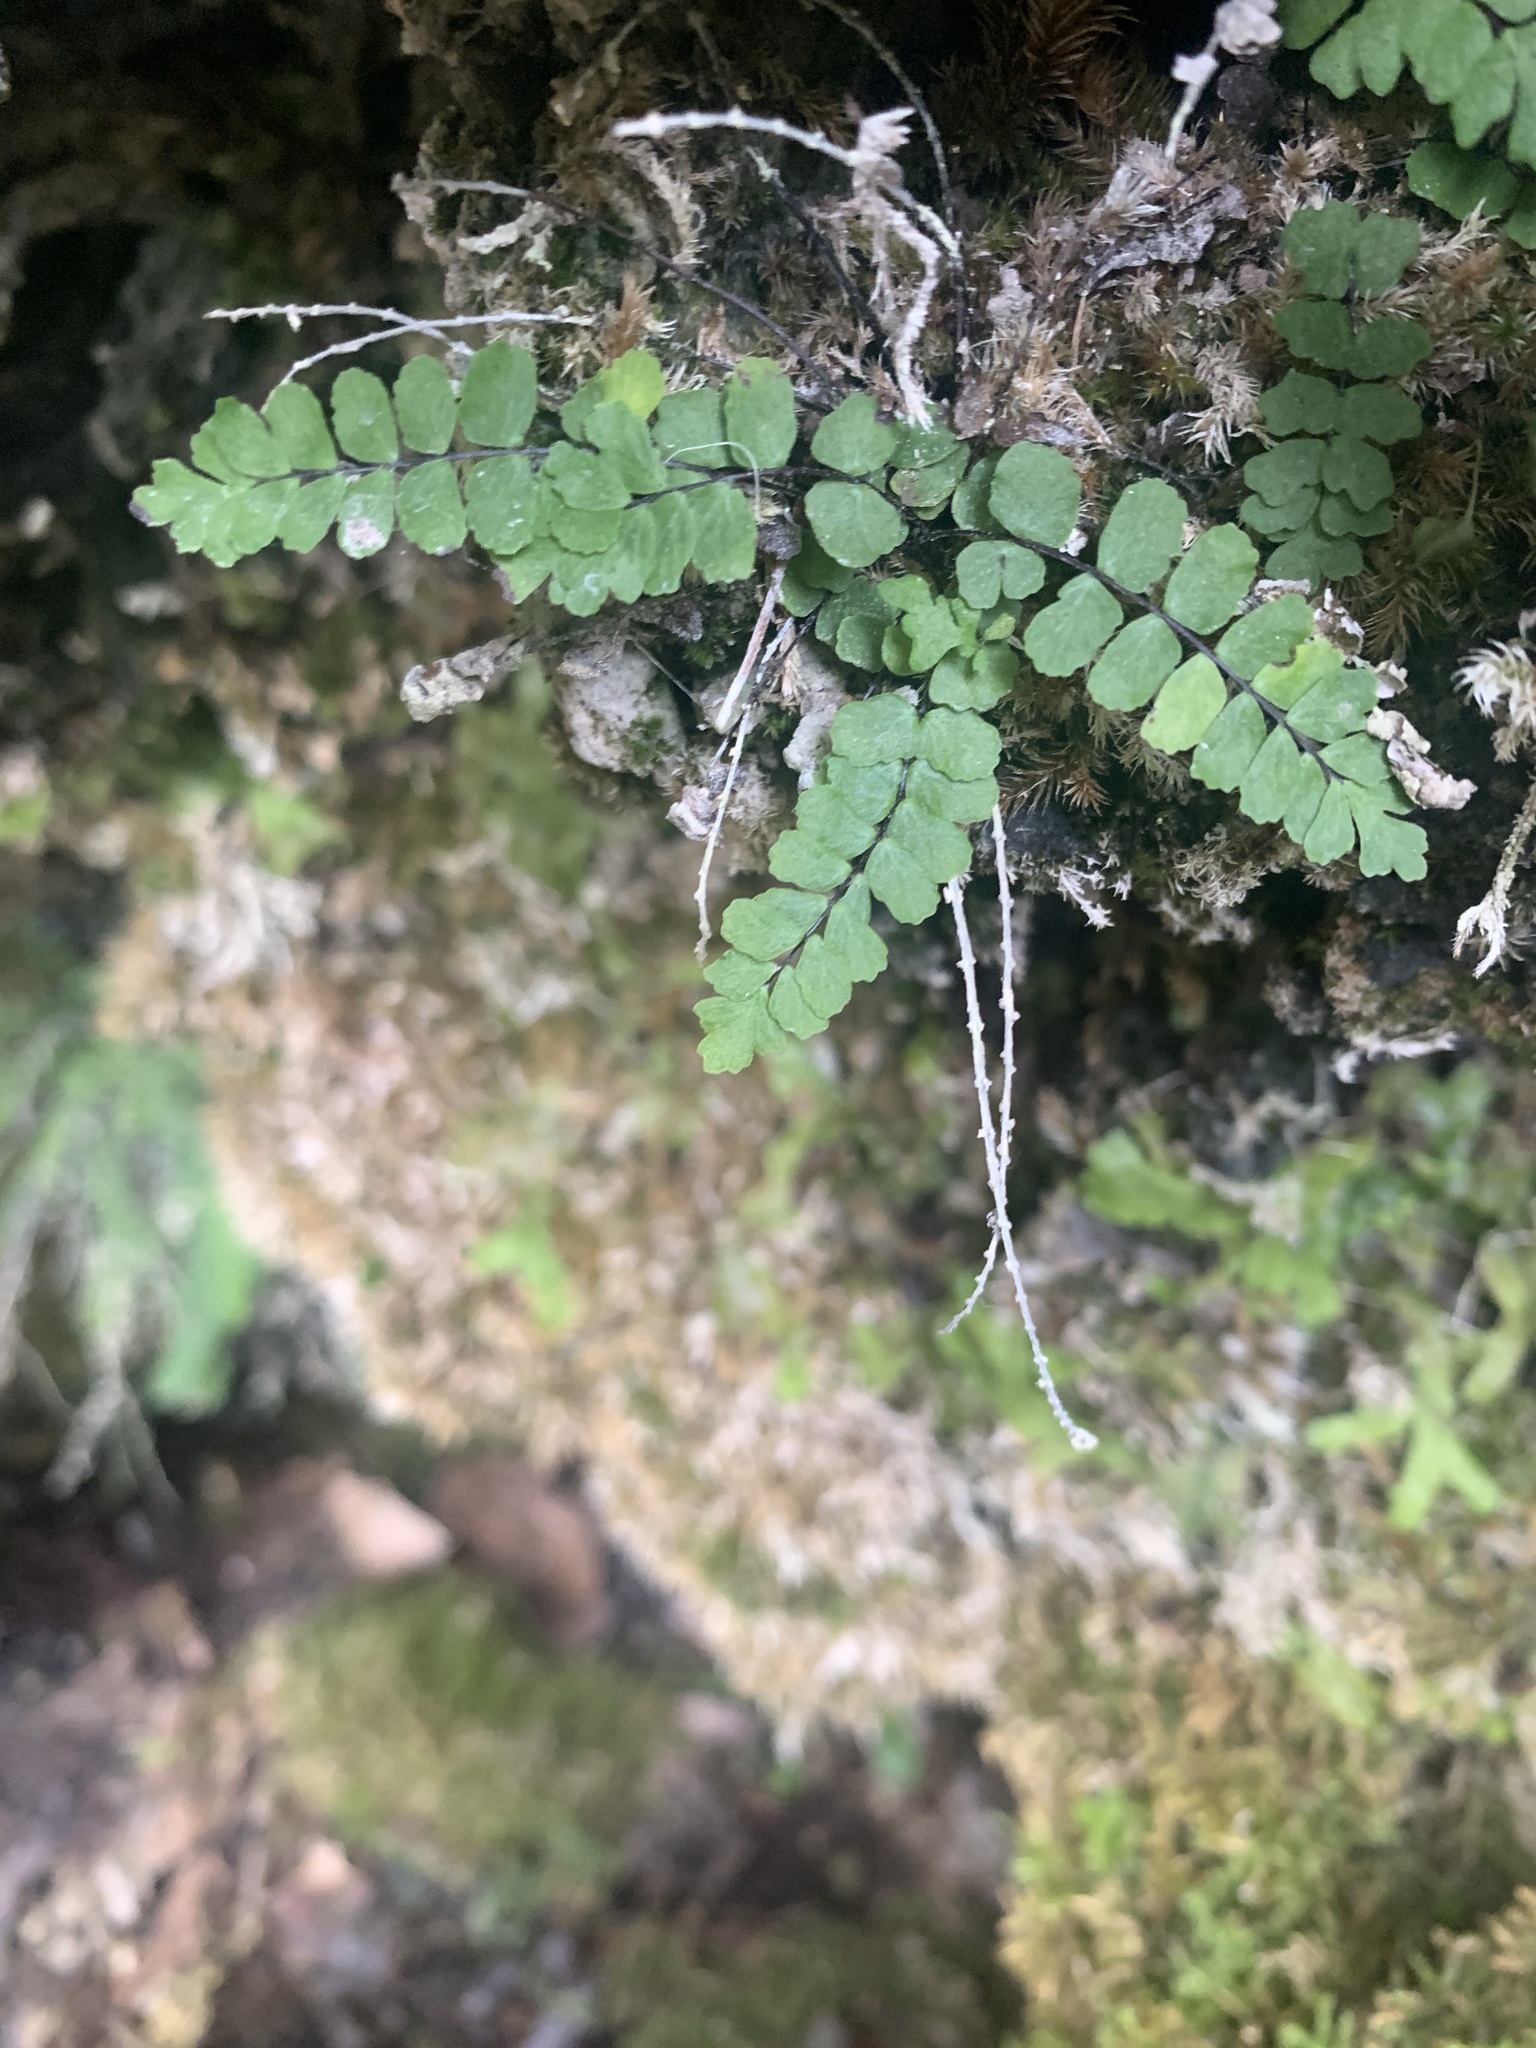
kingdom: Plantae
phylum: Tracheophyta
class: Polypodiopsida
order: Polypodiales
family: Aspleniaceae
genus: Asplenium
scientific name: Asplenium trichomanes
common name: Maidenhair spleenwort
